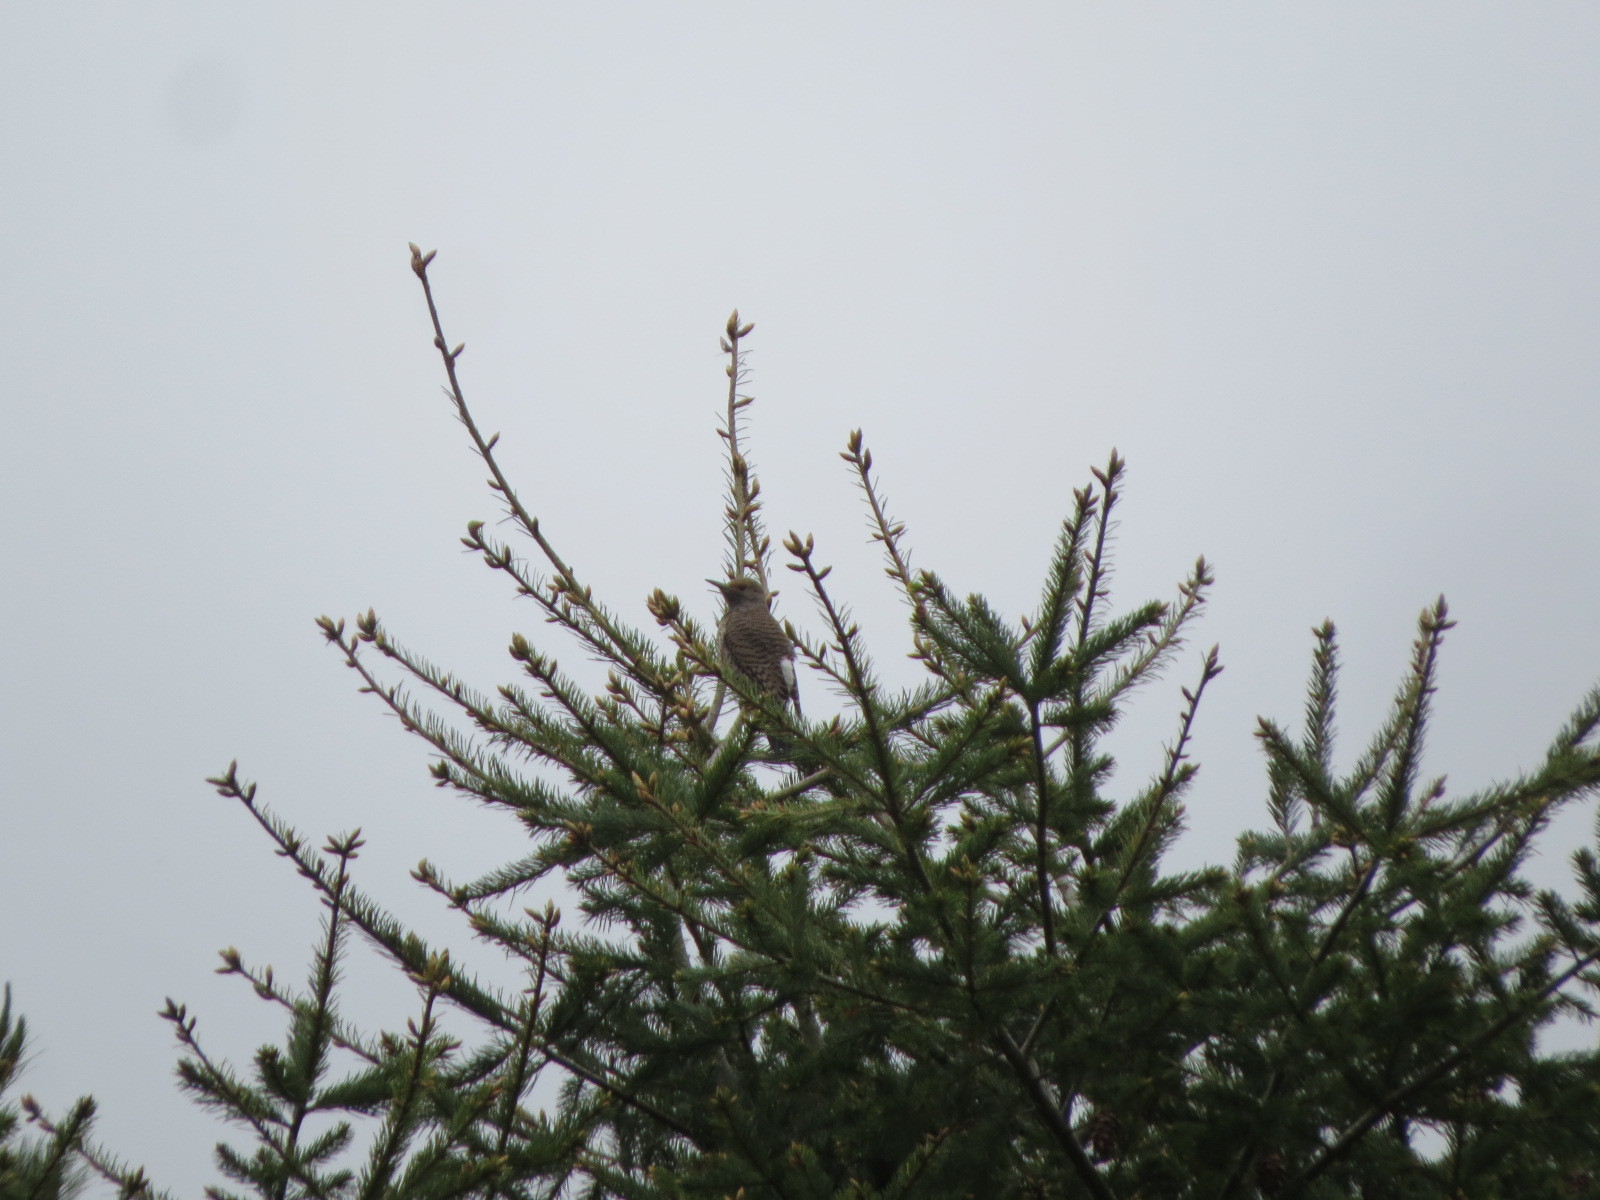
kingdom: Animalia
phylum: Chordata
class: Aves
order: Piciformes
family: Picidae
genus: Colaptes
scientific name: Colaptes auratus
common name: Northern flicker
